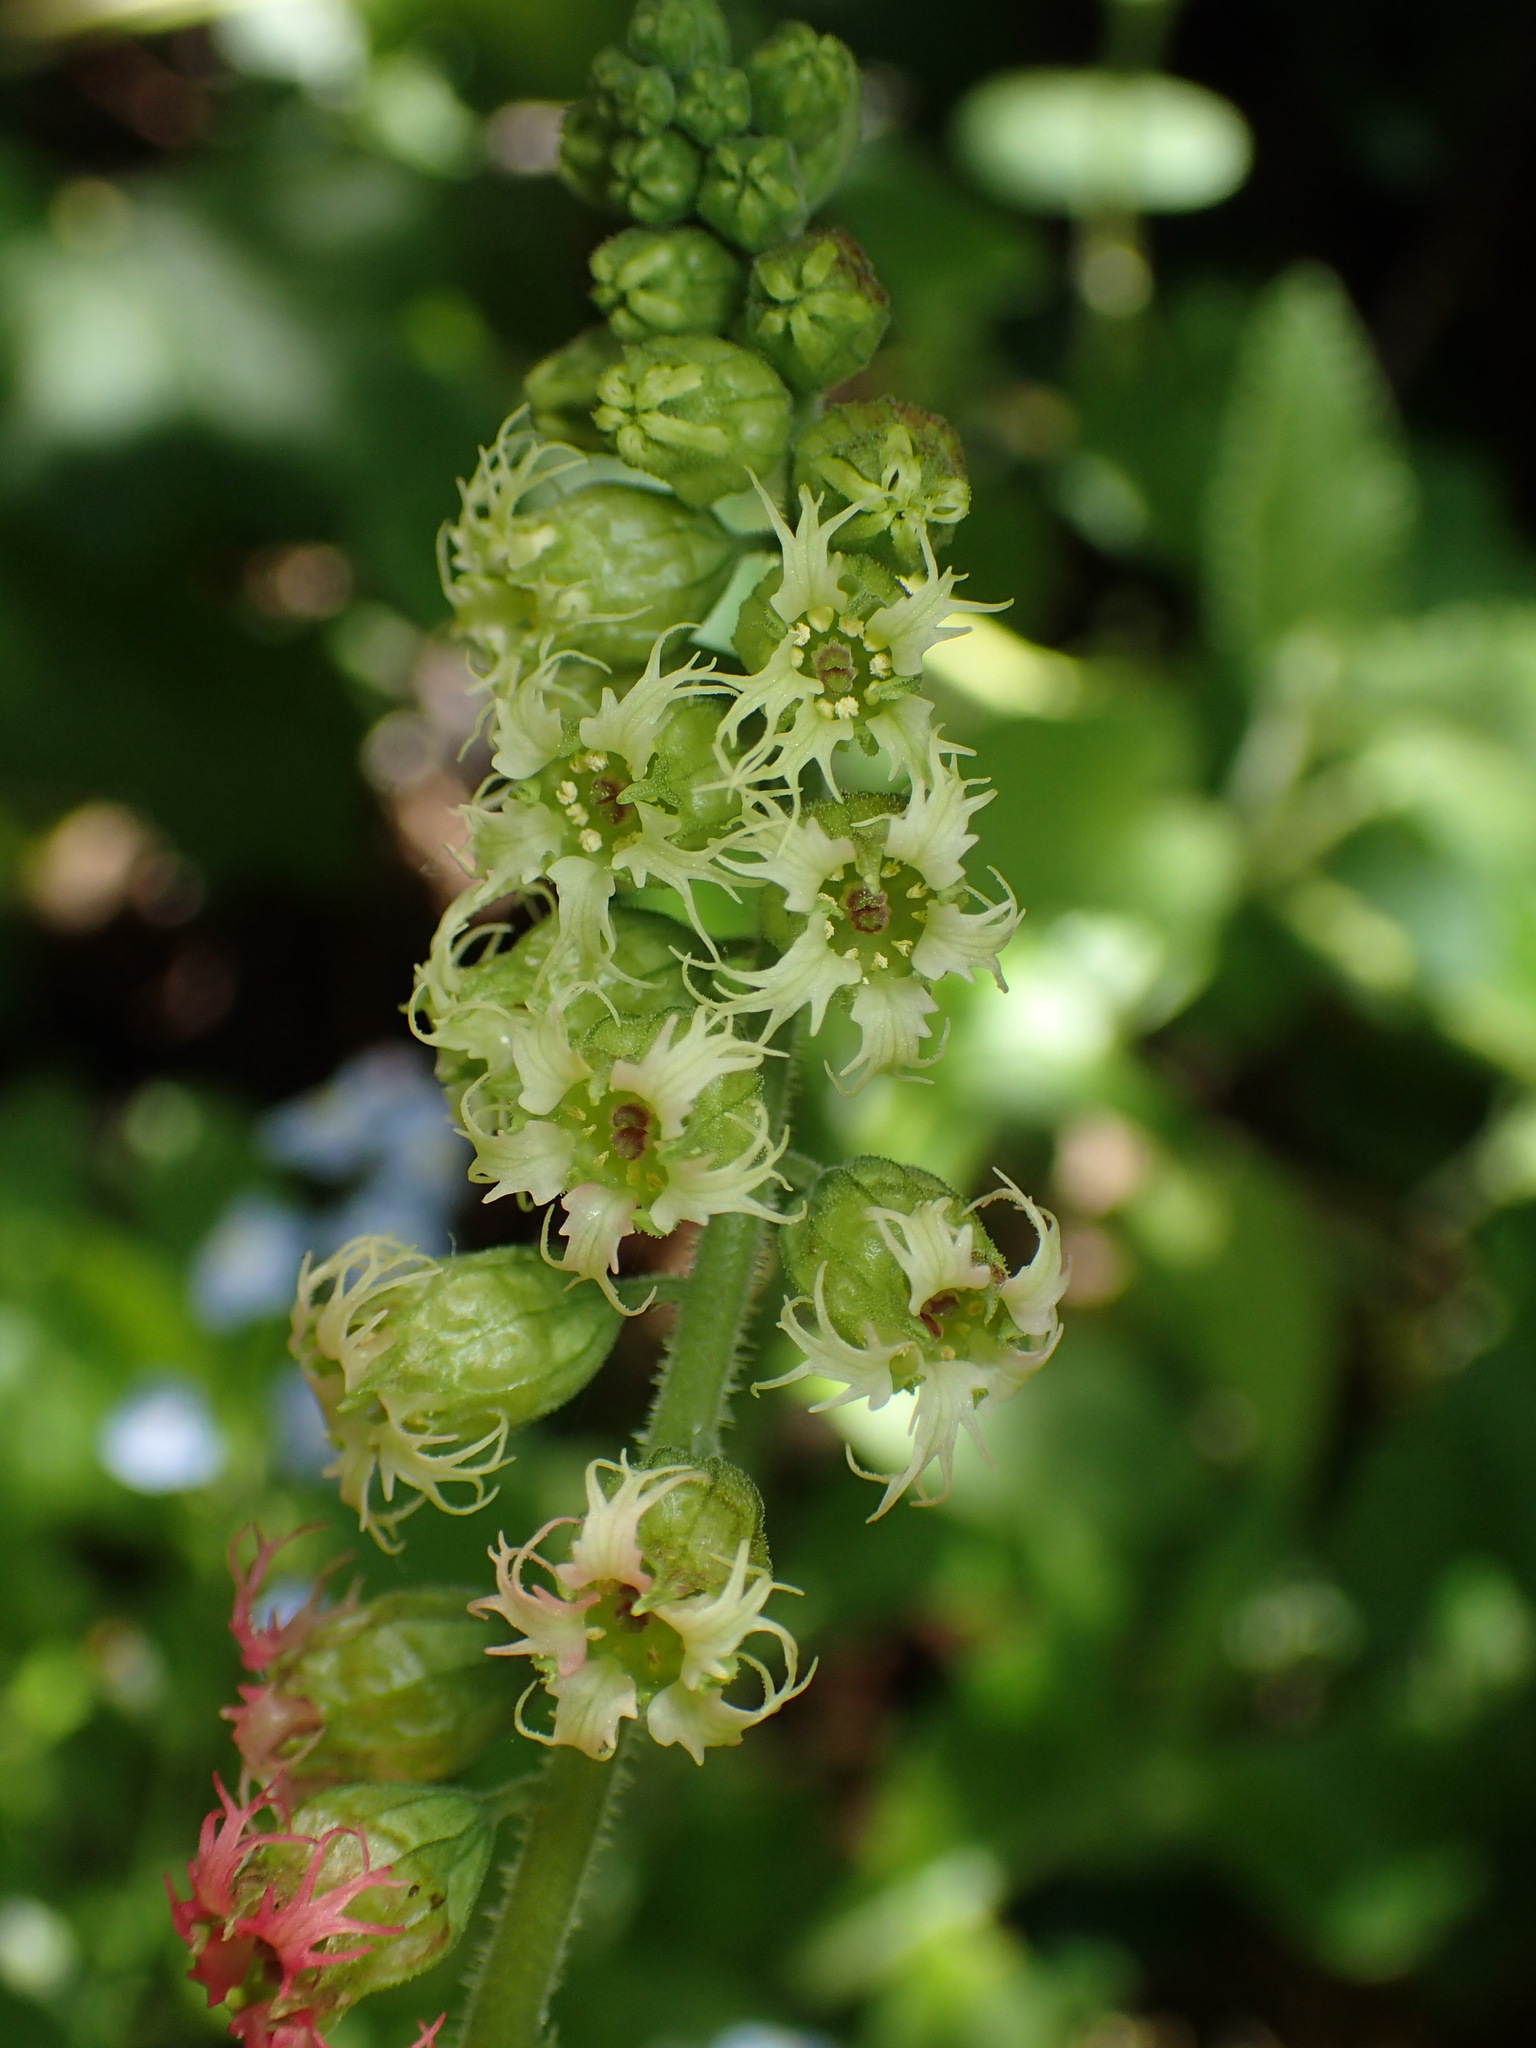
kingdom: Plantae
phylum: Tracheophyta
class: Magnoliopsida
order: Saxifragales
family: Saxifragaceae
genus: Tellima
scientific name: Tellima grandiflora
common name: Fringecups
